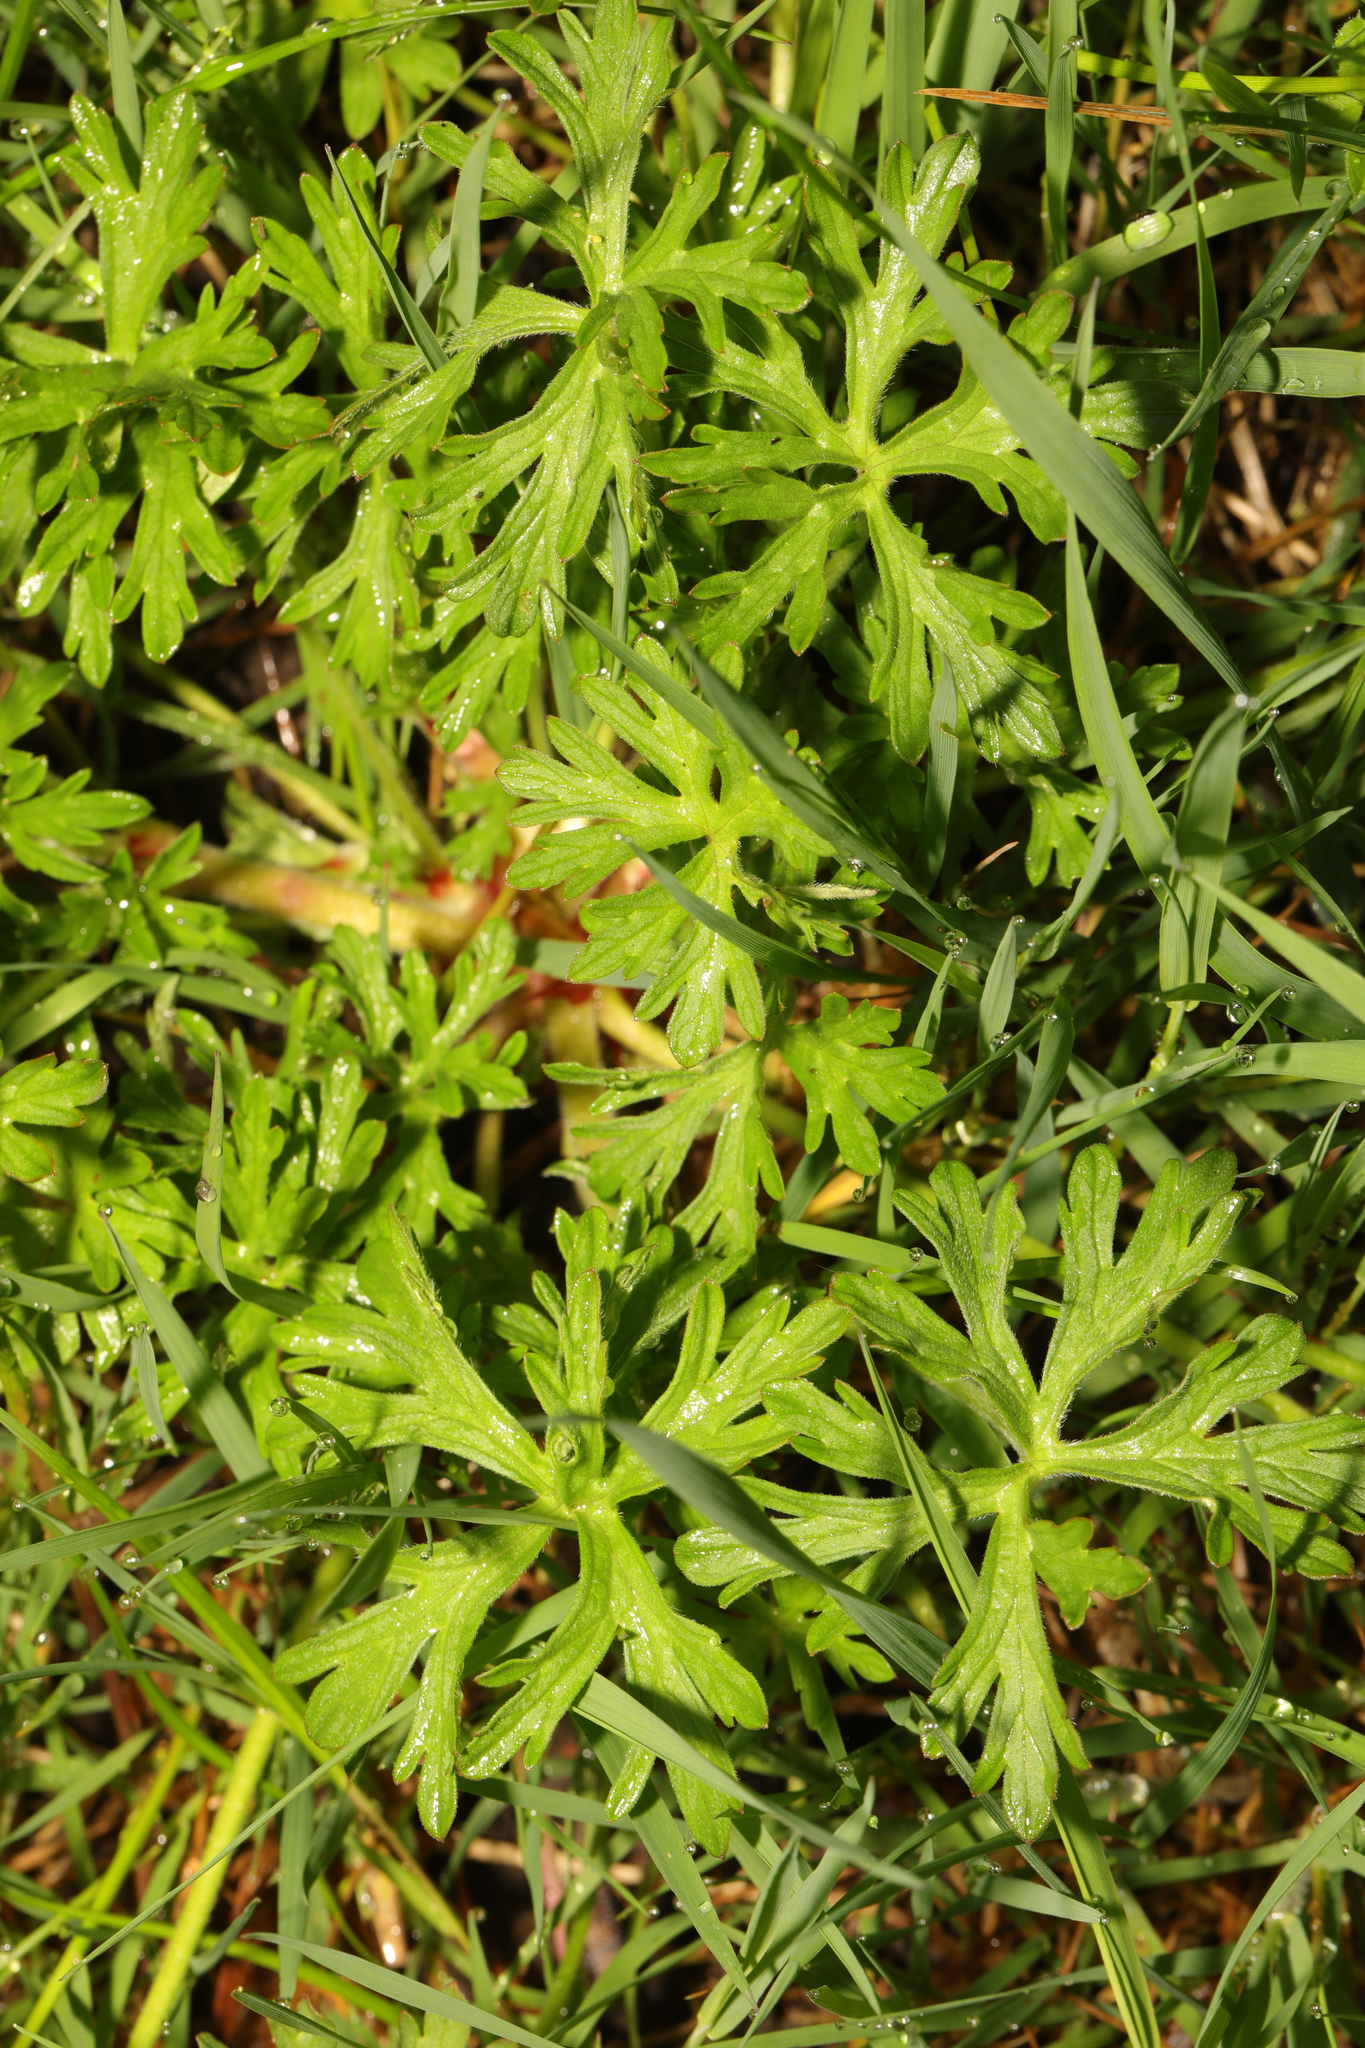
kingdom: Plantae
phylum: Tracheophyta
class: Magnoliopsida
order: Geraniales
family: Geraniaceae
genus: Geranium
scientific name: Geranium dissectum
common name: Cut-leaved crane's-bill
